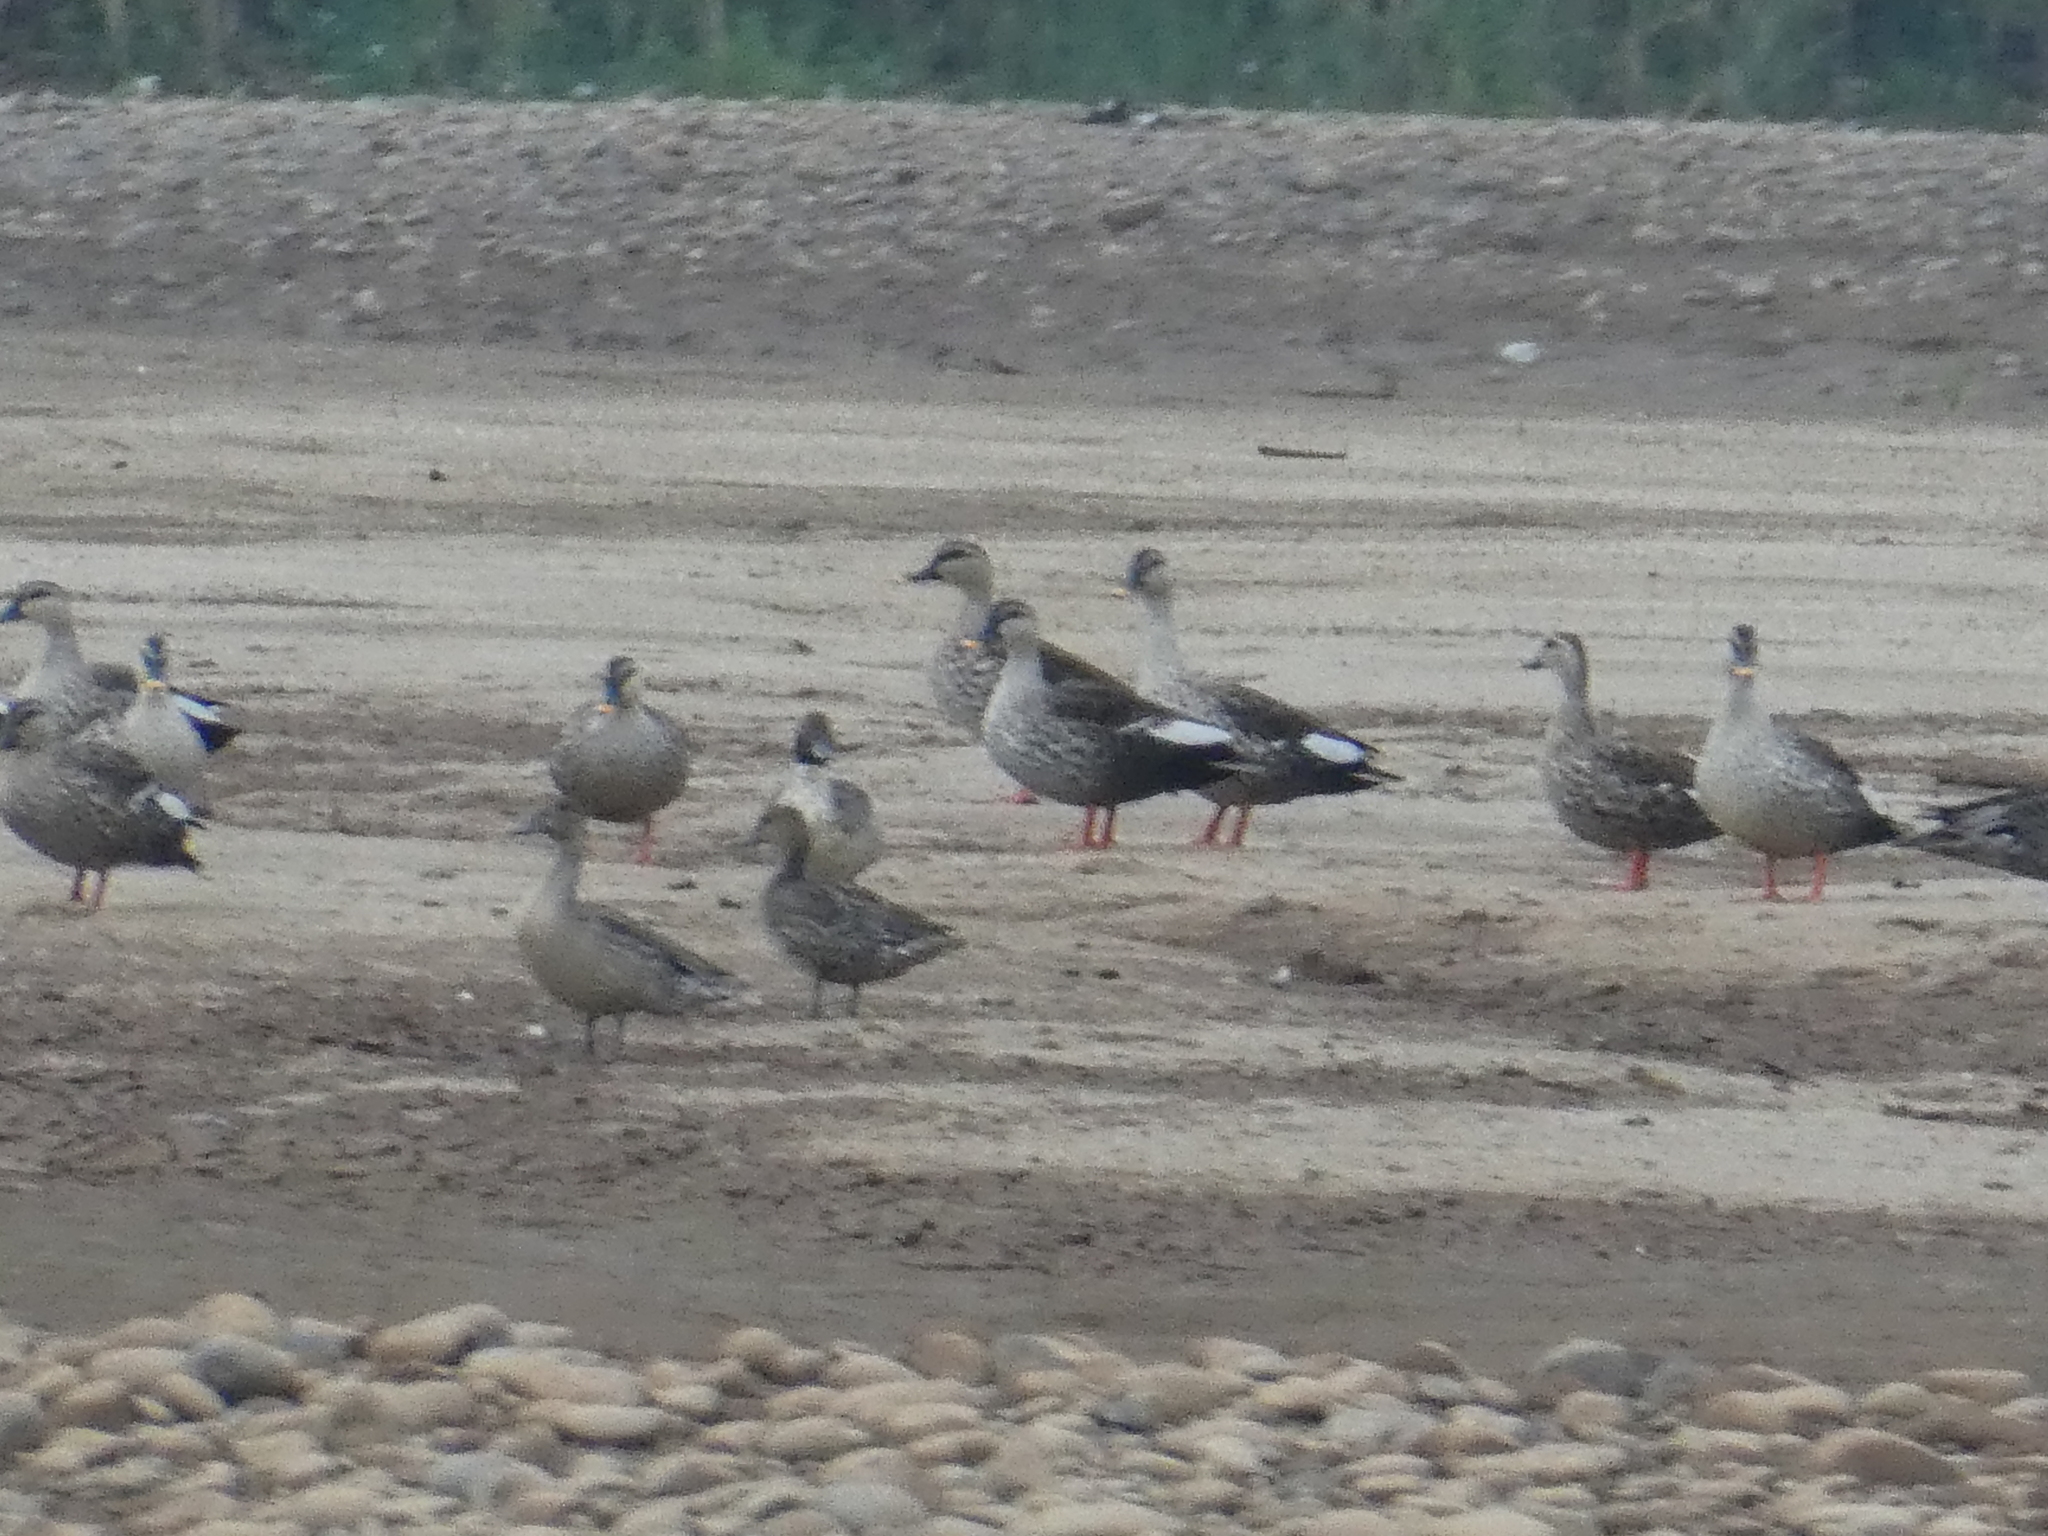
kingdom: Animalia
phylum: Chordata
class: Aves
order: Anseriformes
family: Anatidae
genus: Anas
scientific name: Anas poecilorhyncha
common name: Indian spot-billed duck
